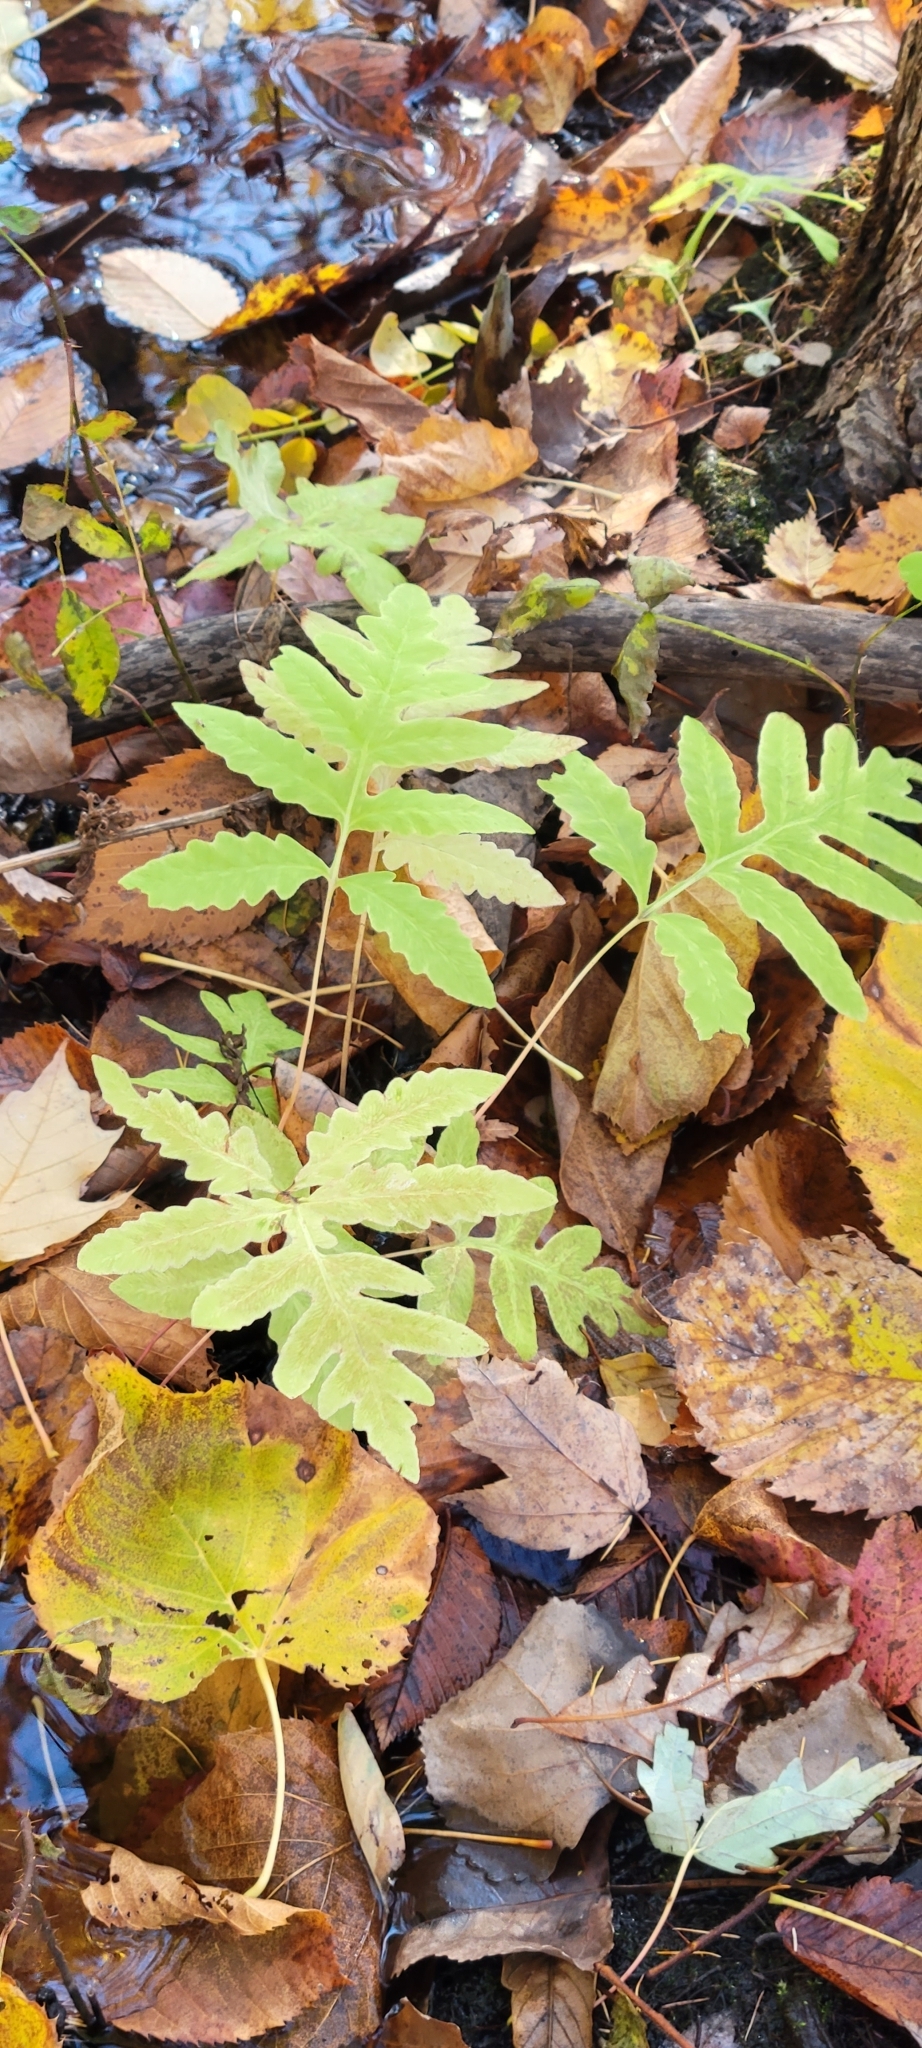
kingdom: Plantae
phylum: Tracheophyta
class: Polypodiopsida
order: Polypodiales
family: Onocleaceae
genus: Onoclea
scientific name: Onoclea sensibilis
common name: Sensitive fern
